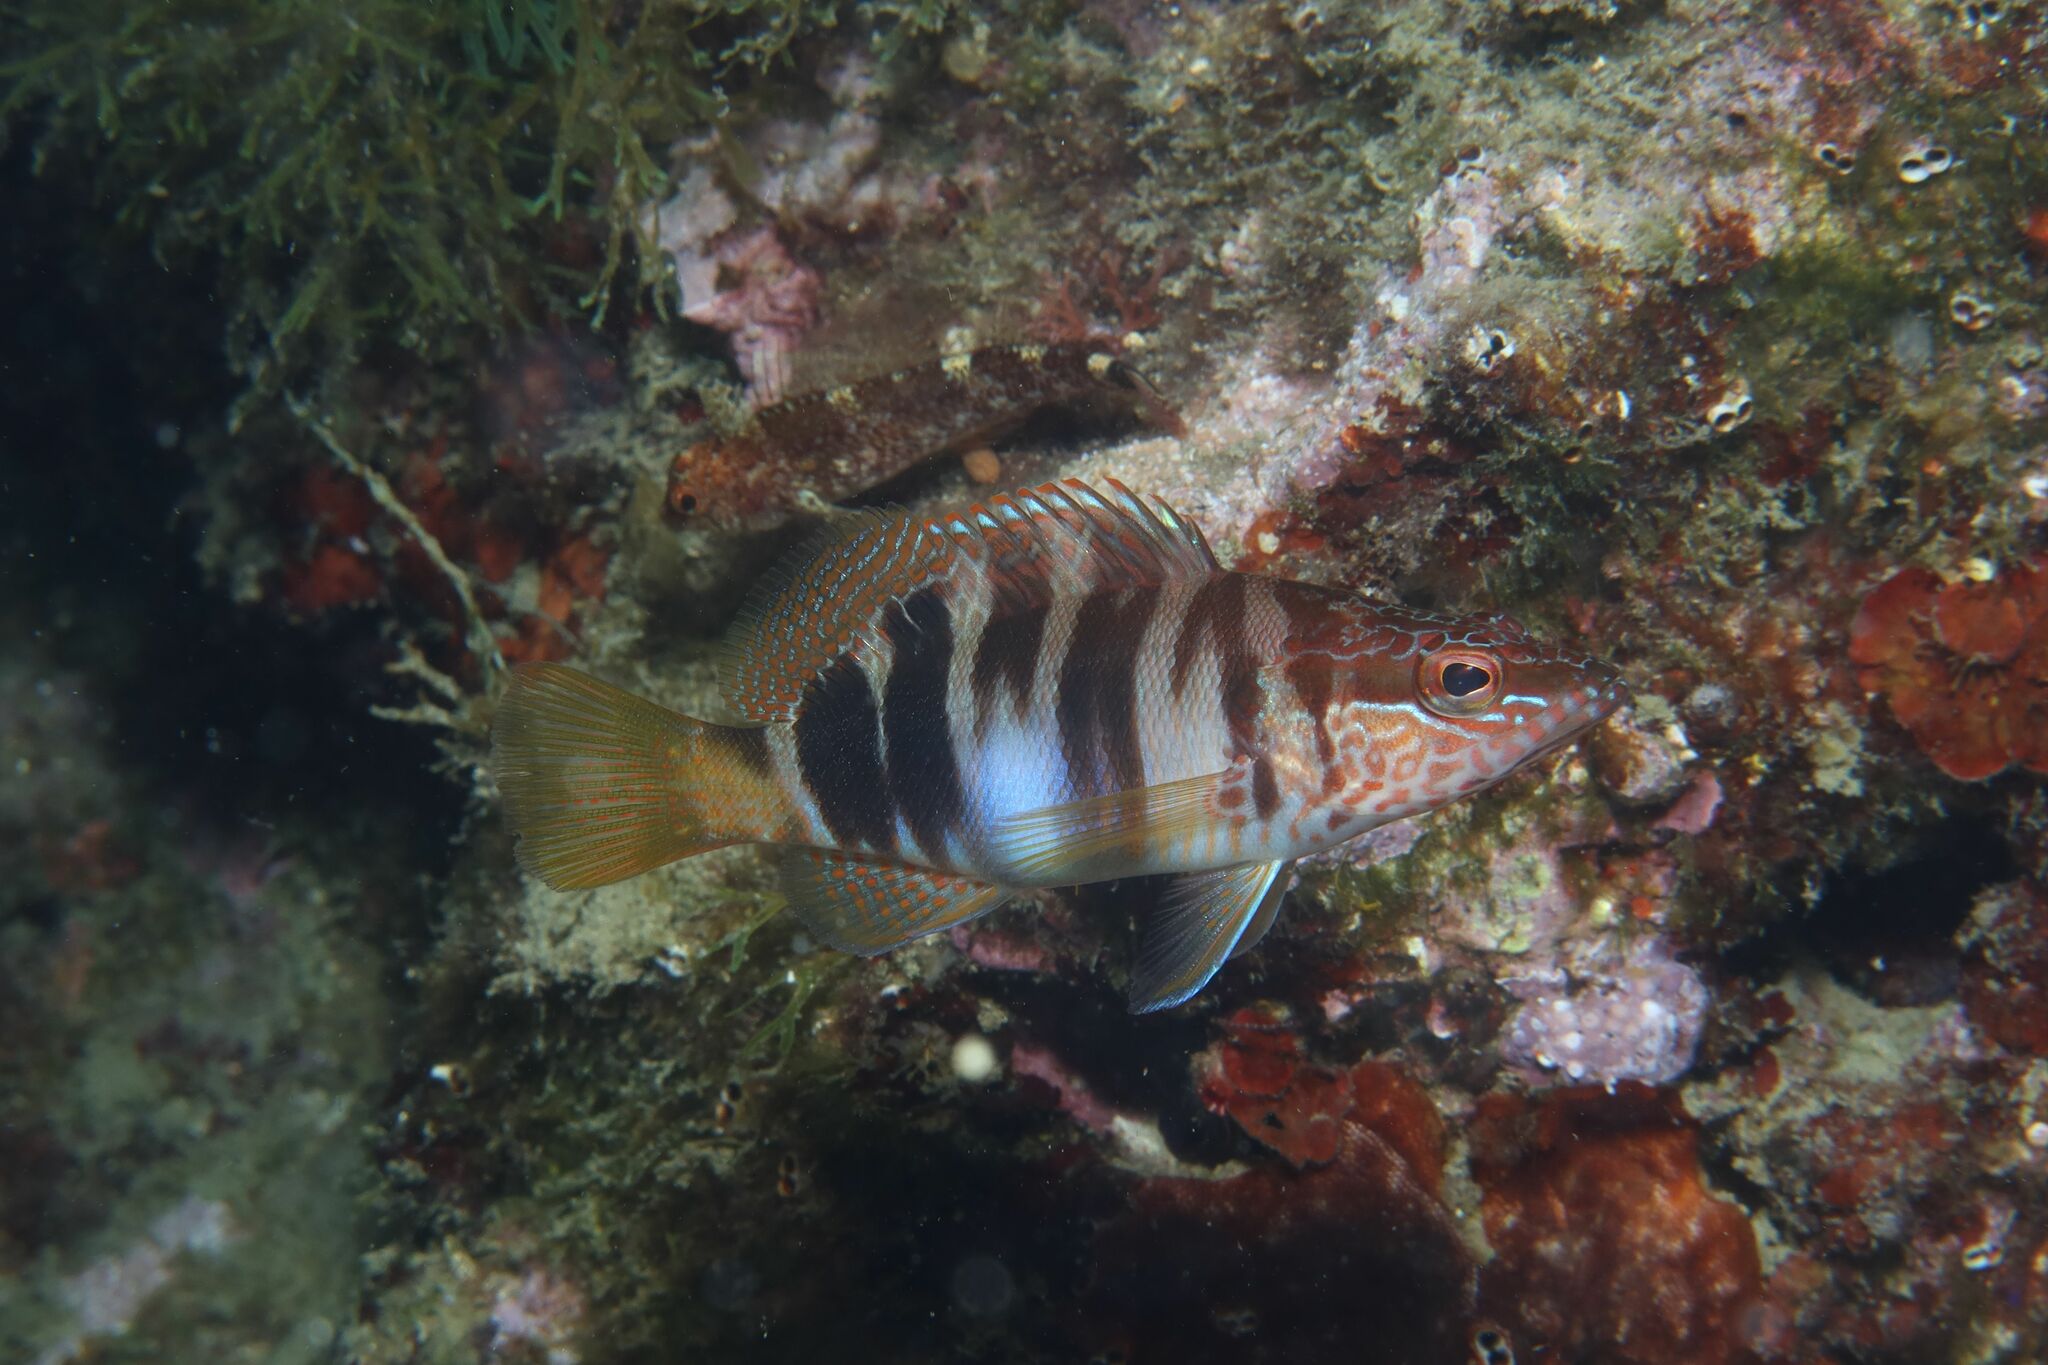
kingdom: Animalia
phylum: Chordata
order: Perciformes
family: Serranidae
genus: Serranus
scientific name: Serranus scriba
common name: Painted comber
